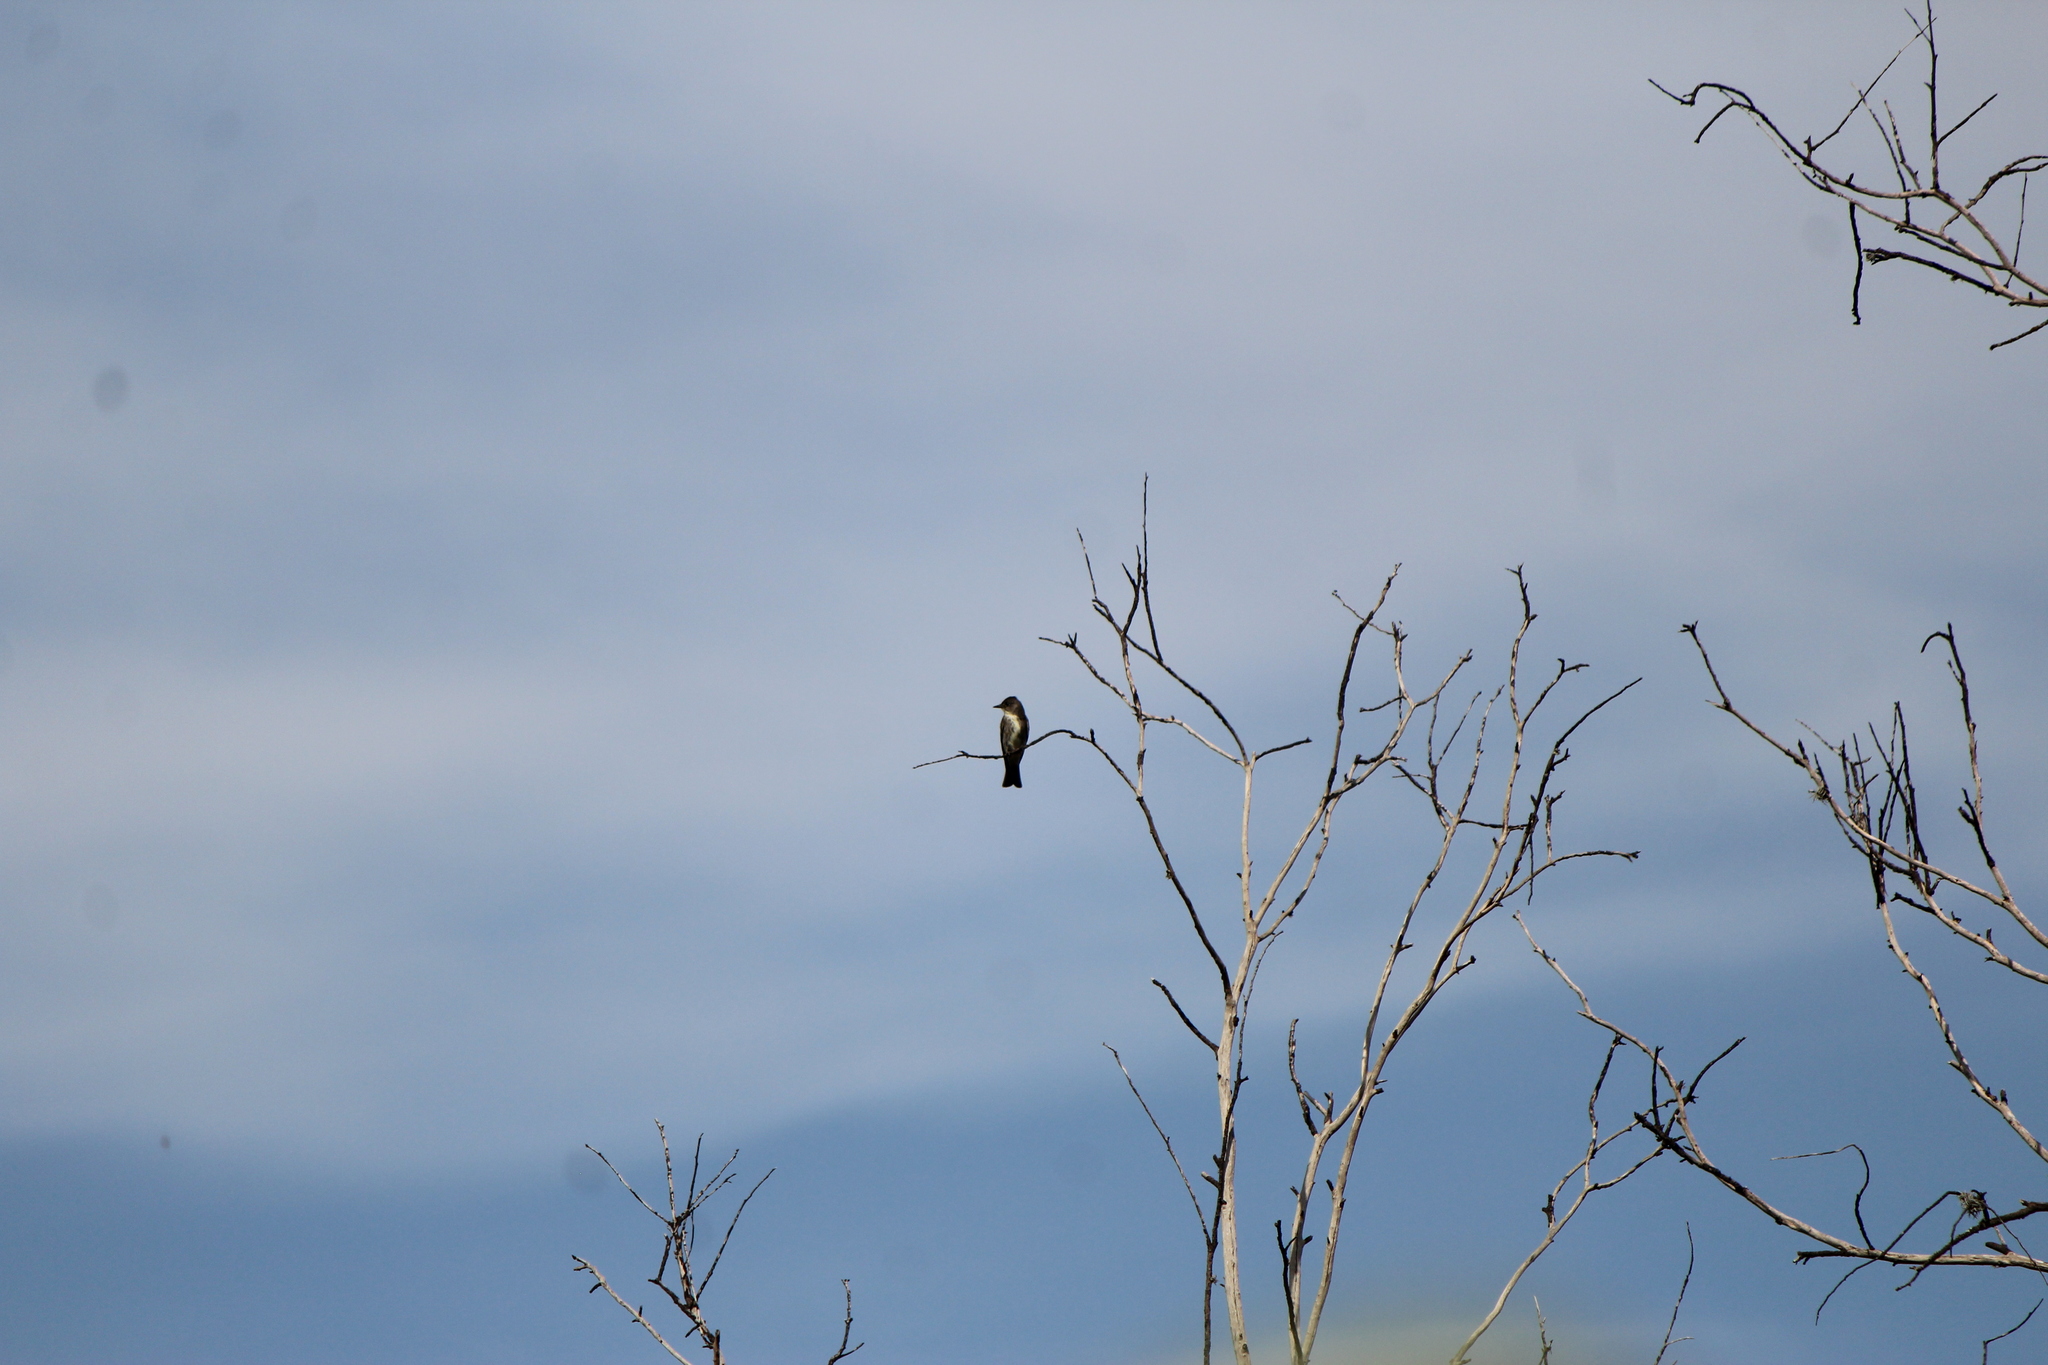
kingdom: Animalia
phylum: Chordata
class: Aves
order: Passeriformes
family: Tyrannidae
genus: Contopus
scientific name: Contopus cooperi
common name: Olive-sided flycatcher
